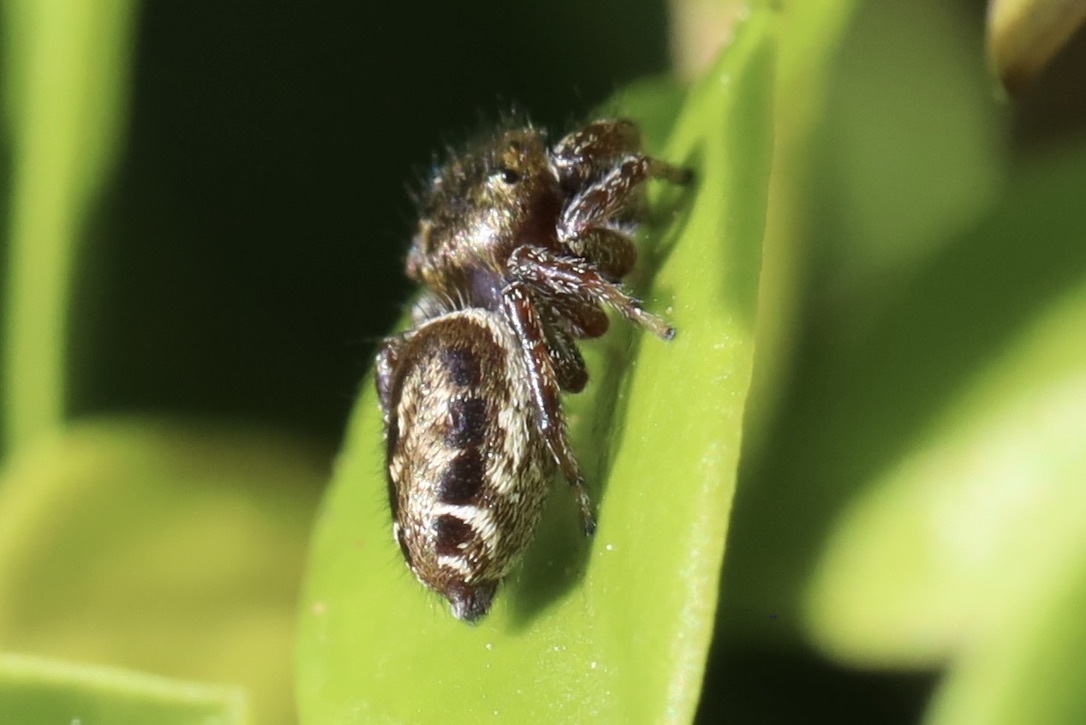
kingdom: Animalia
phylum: Arthropoda
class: Arachnida
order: Araneae
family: Salticidae
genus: Metaphidippus
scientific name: Metaphidippus manni
